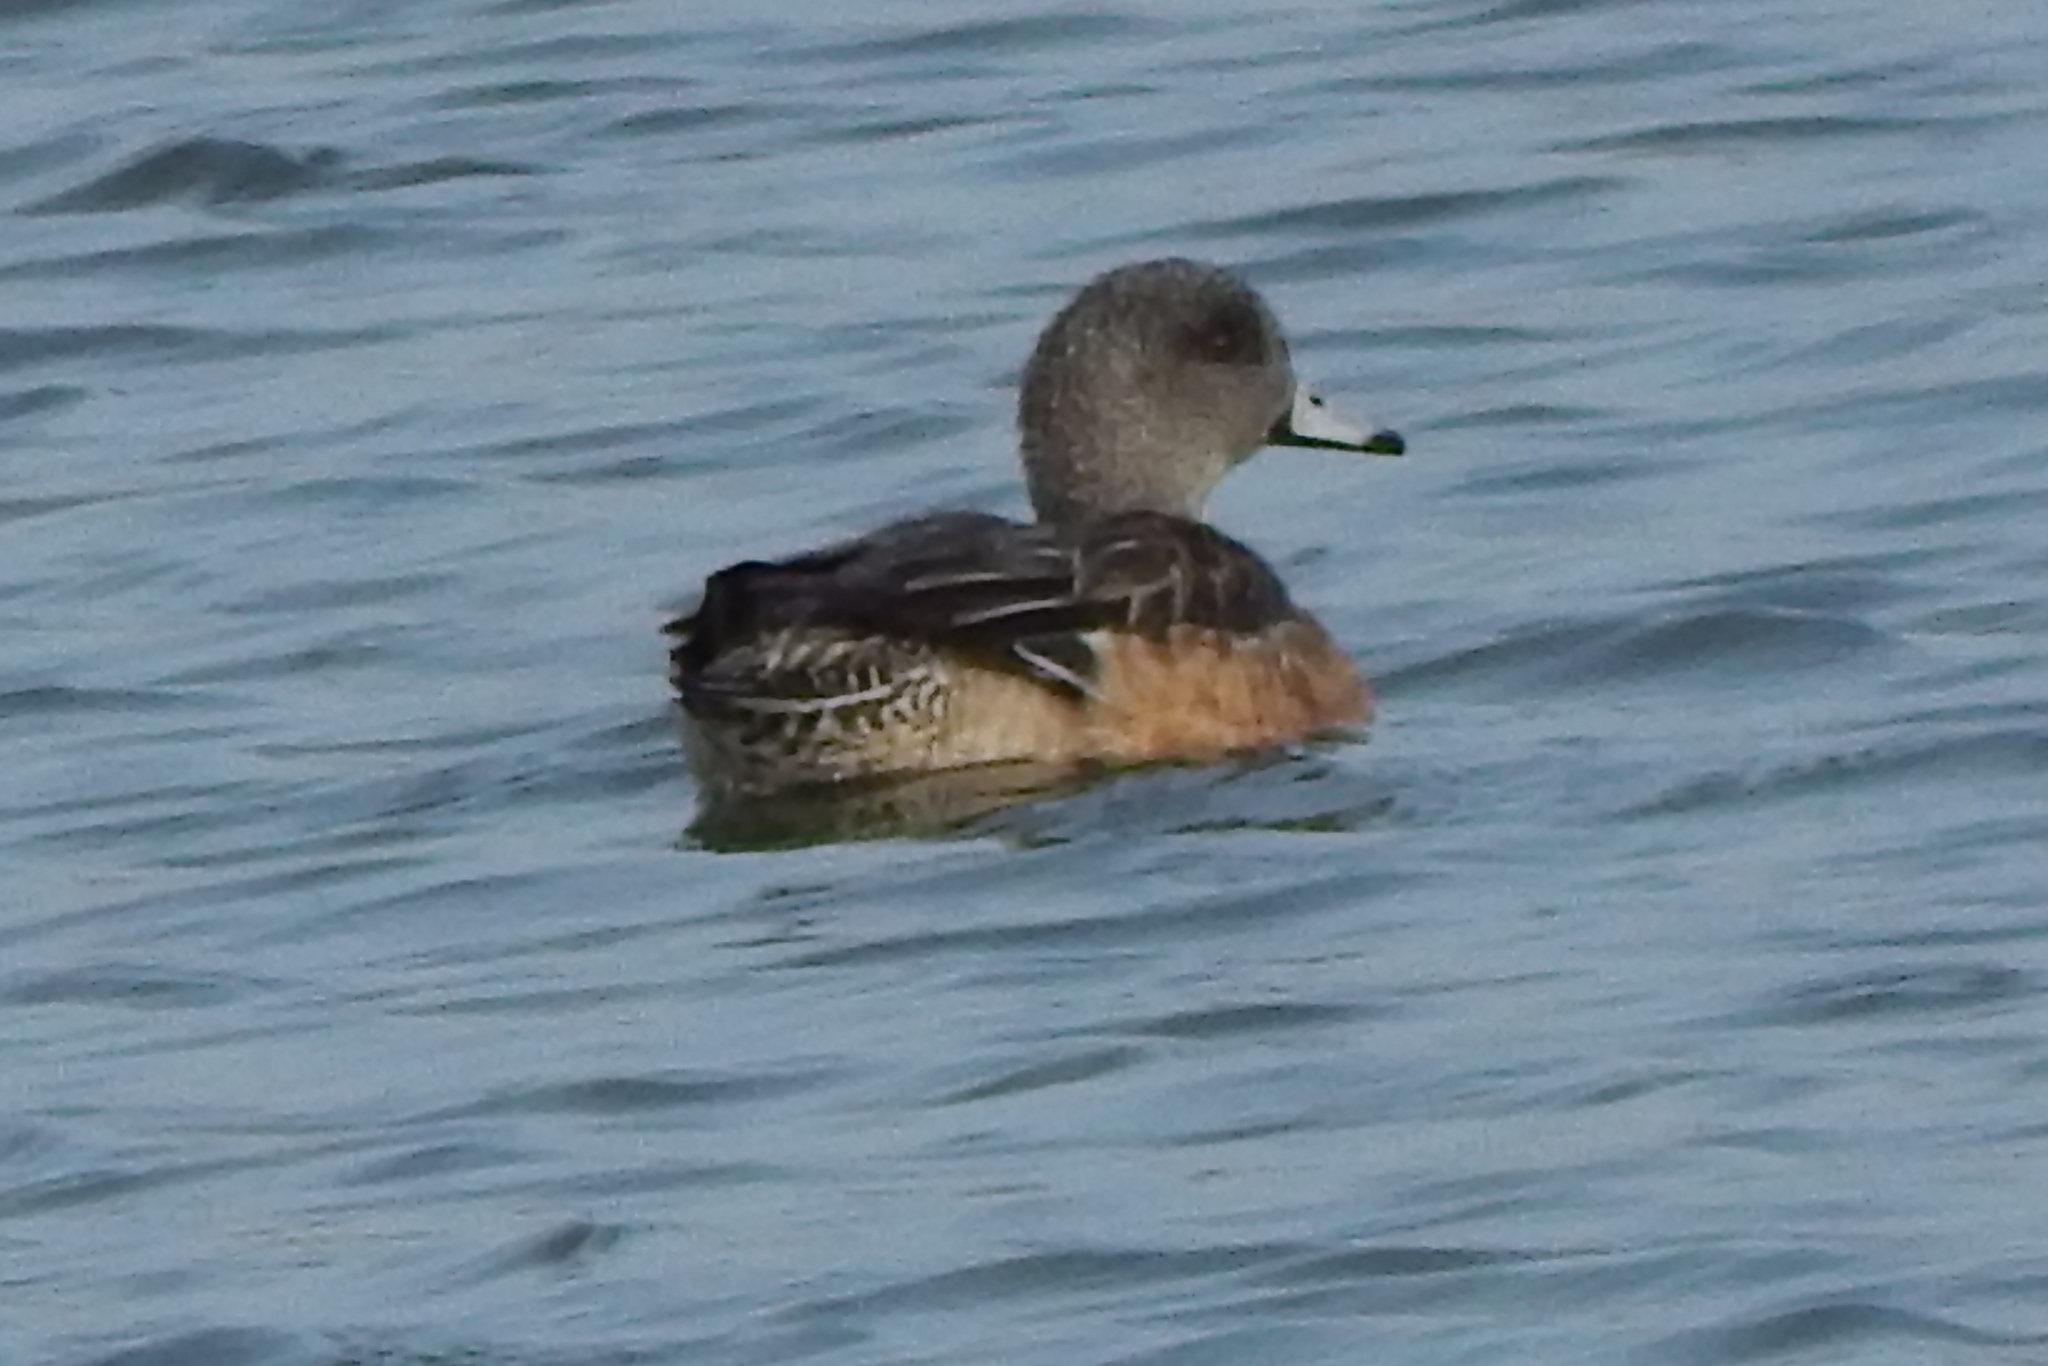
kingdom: Animalia
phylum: Chordata
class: Aves
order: Anseriformes
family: Anatidae
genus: Mareca
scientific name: Mareca americana
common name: American wigeon
